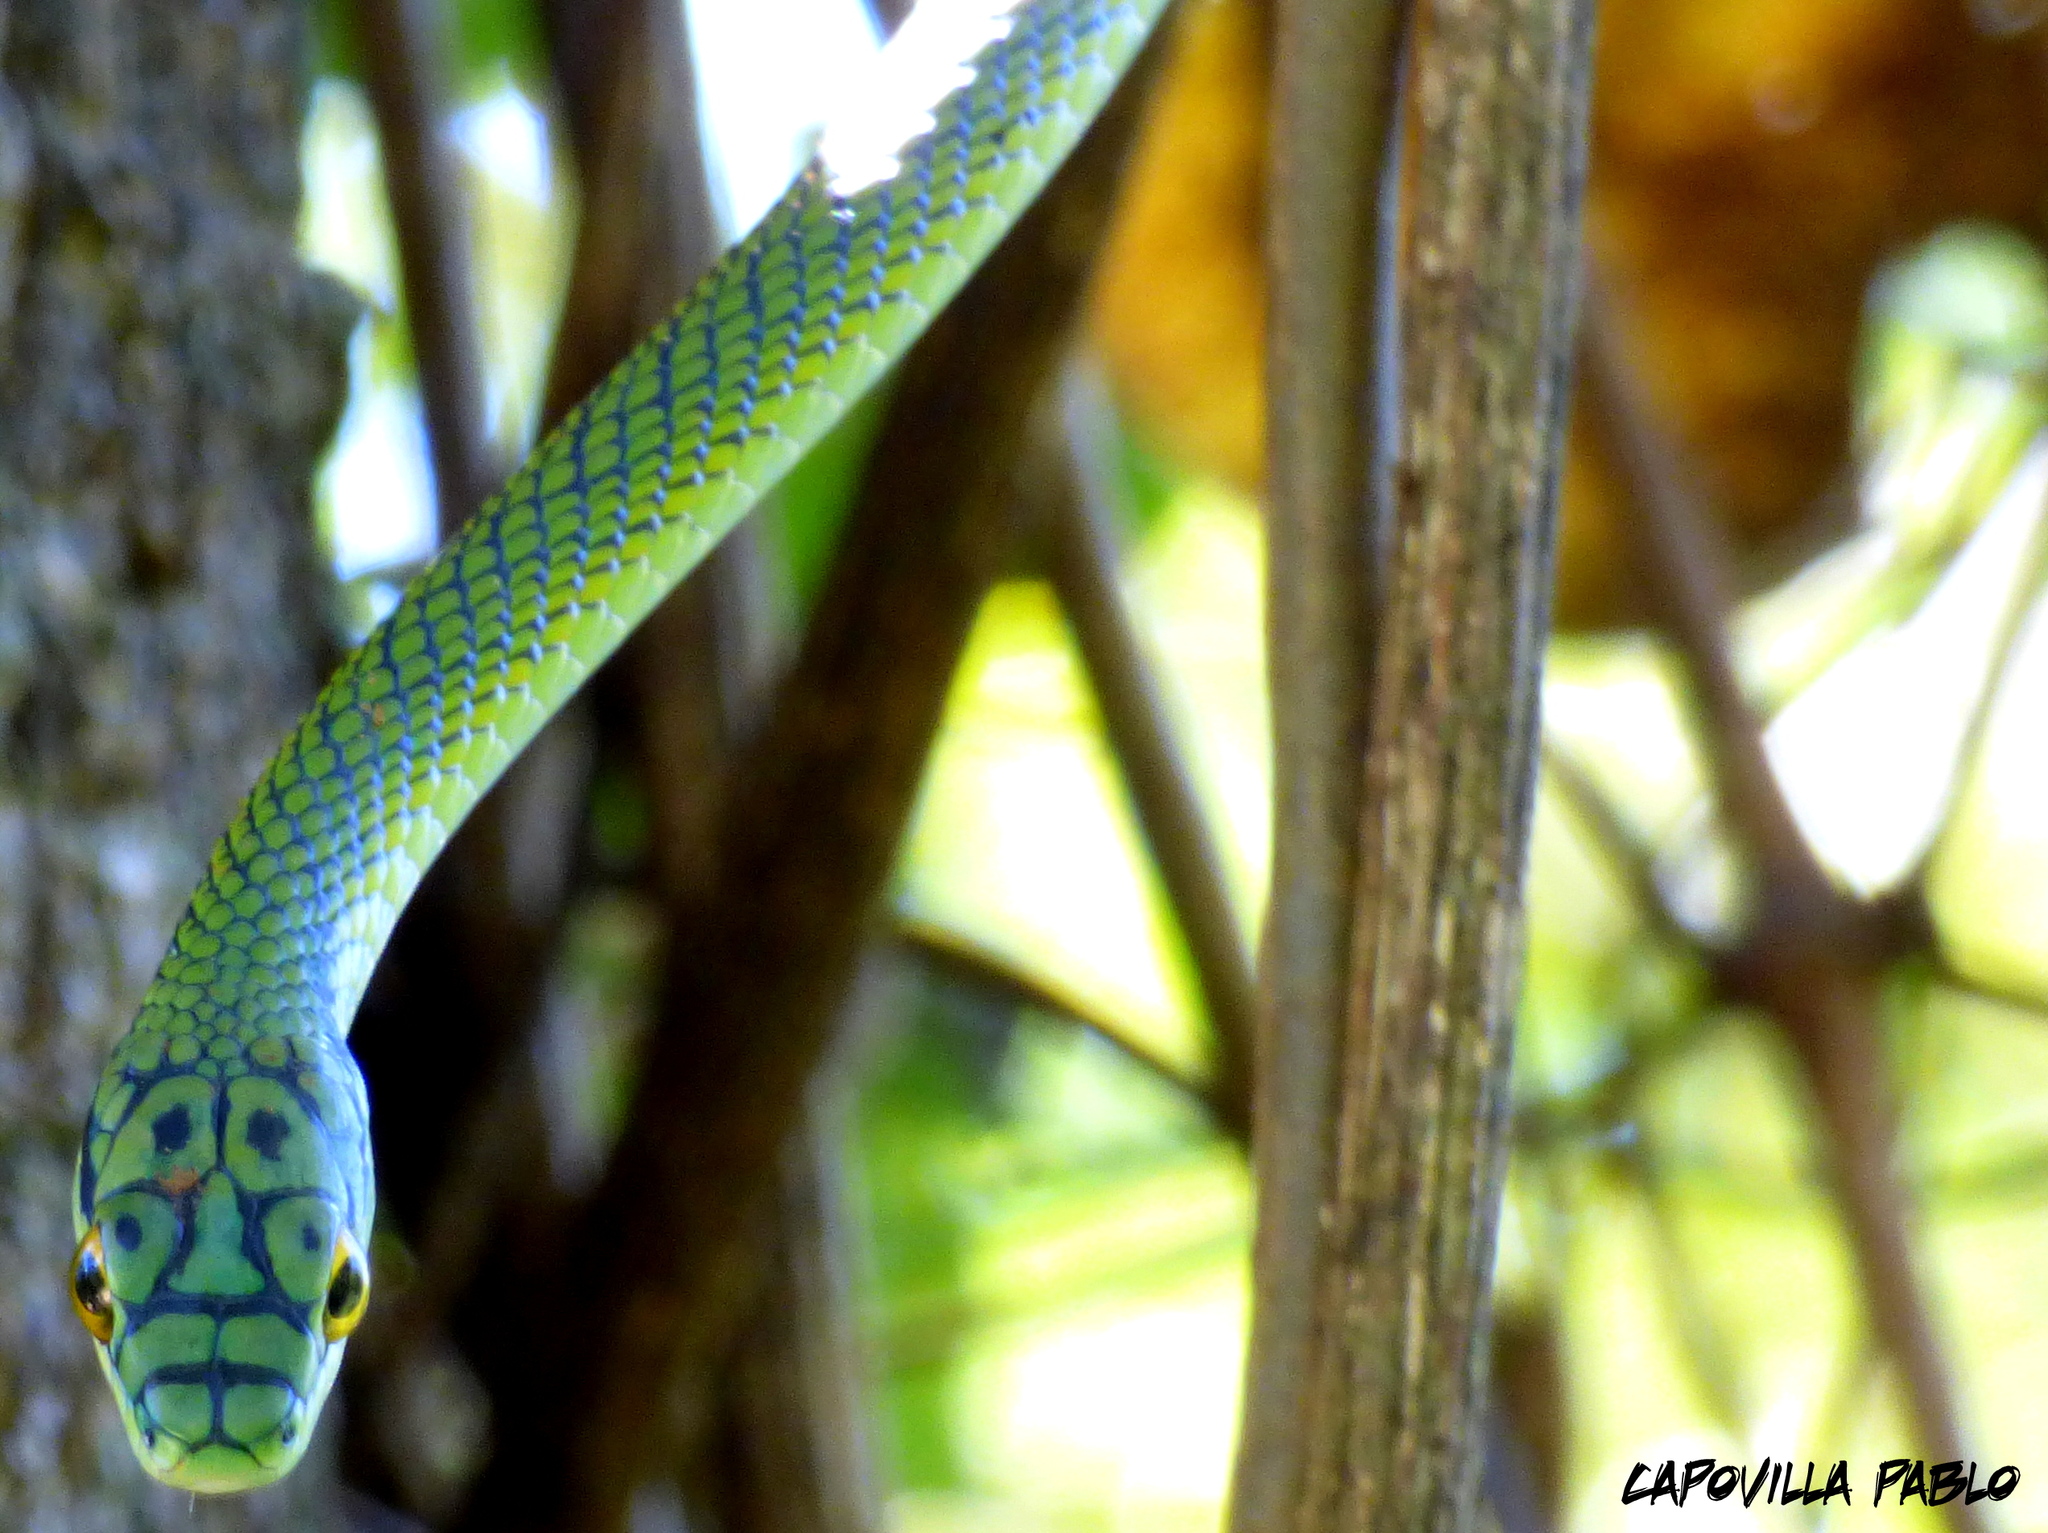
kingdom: Animalia
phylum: Chordata
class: Squamata
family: Colubridae
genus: Leptophis
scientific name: Leptophis ahaetulla
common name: Parrot snake
